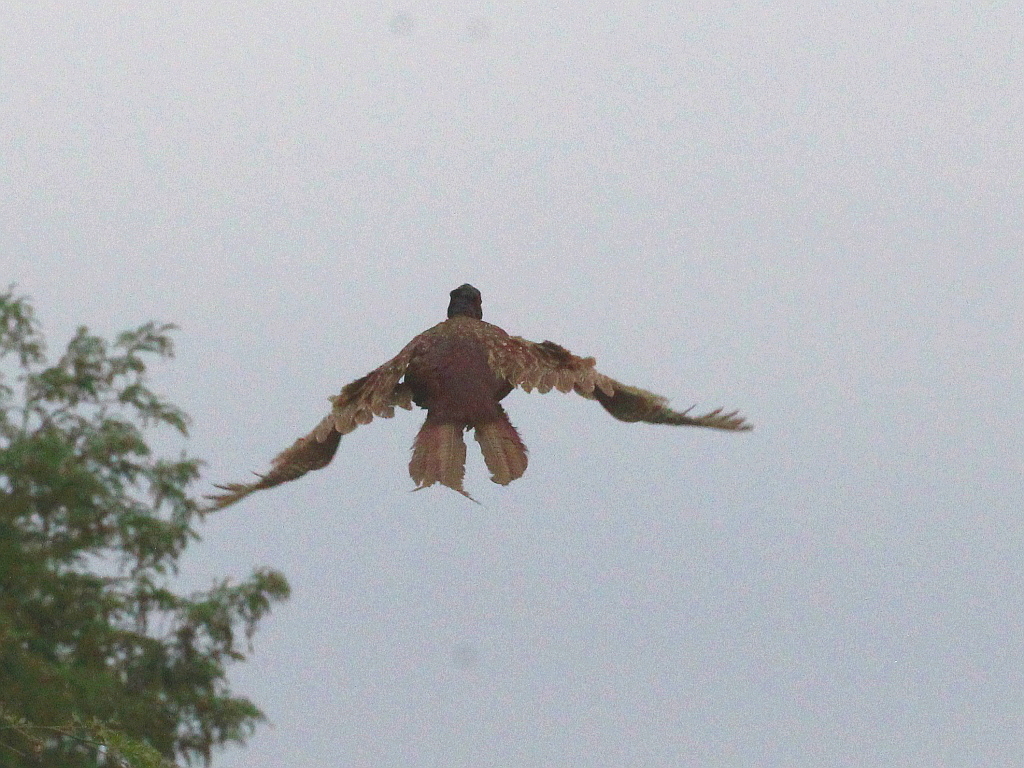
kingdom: Animalia
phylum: Chordata
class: Aves
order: Galliformes
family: Phasianidae
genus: Phasianus
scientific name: Phasianus colchicus
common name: Common pheasant
